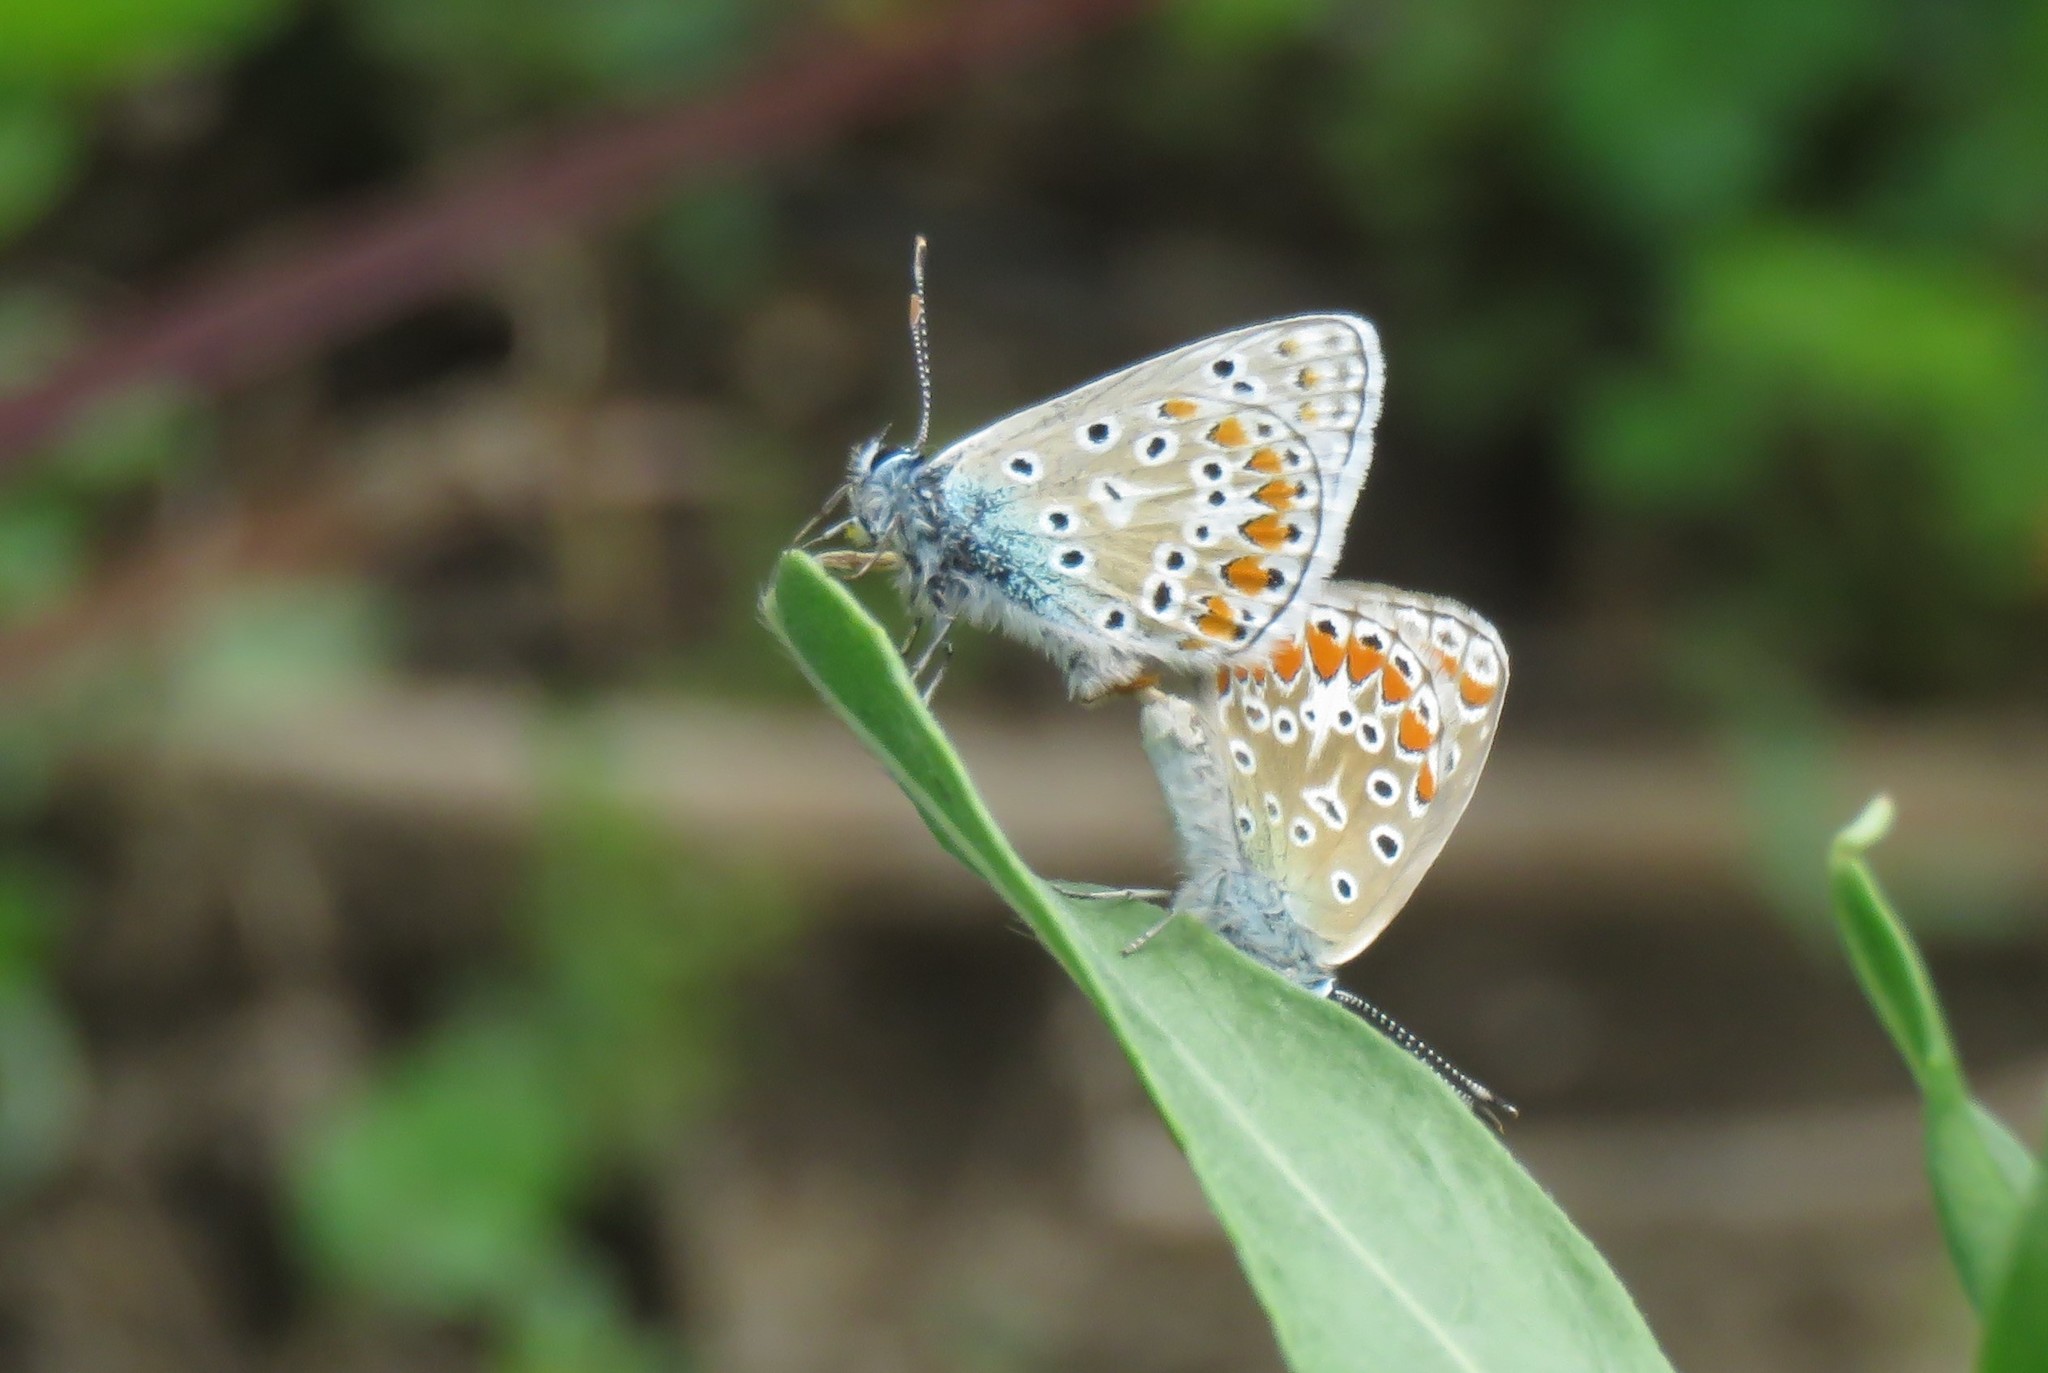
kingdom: Animalia
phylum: Arthropoda
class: Insecta
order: Lepidoptera
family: Lycaenidae
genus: Polyommatus
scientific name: Polyommatus icarus
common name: Common blue
